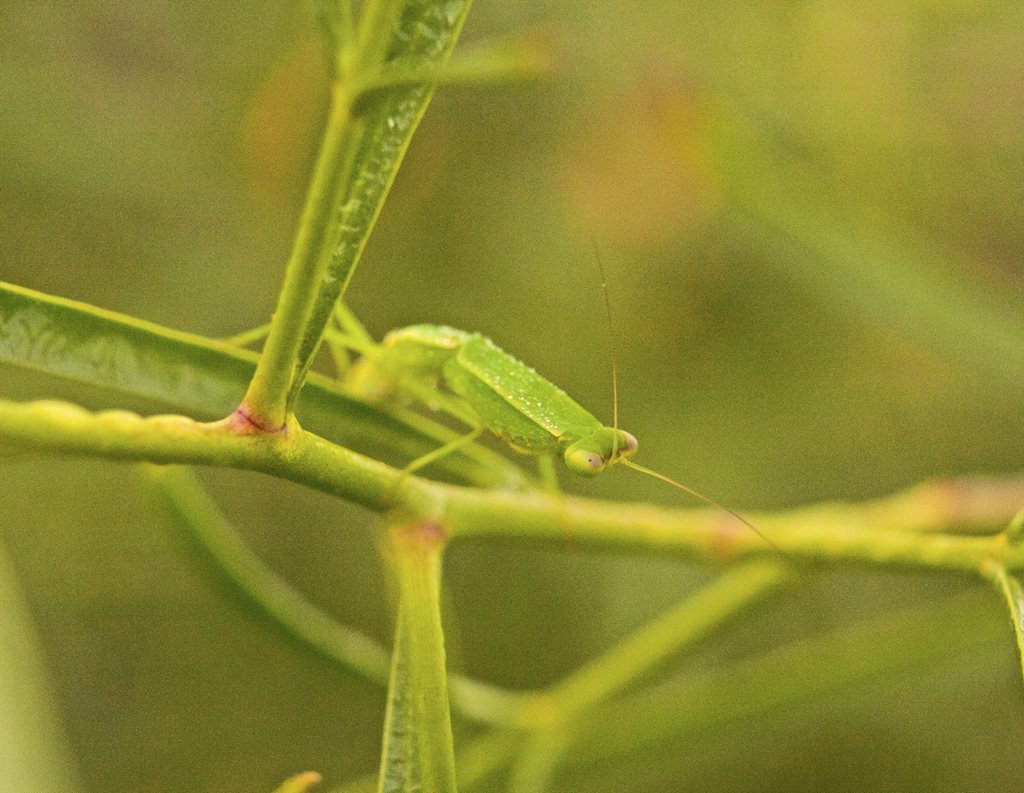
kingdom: Animalia
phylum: Arthropoda
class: Insecta
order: Mantodea
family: Mantidae
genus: Orthodera
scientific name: Orthodera ministralis
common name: Mantis
